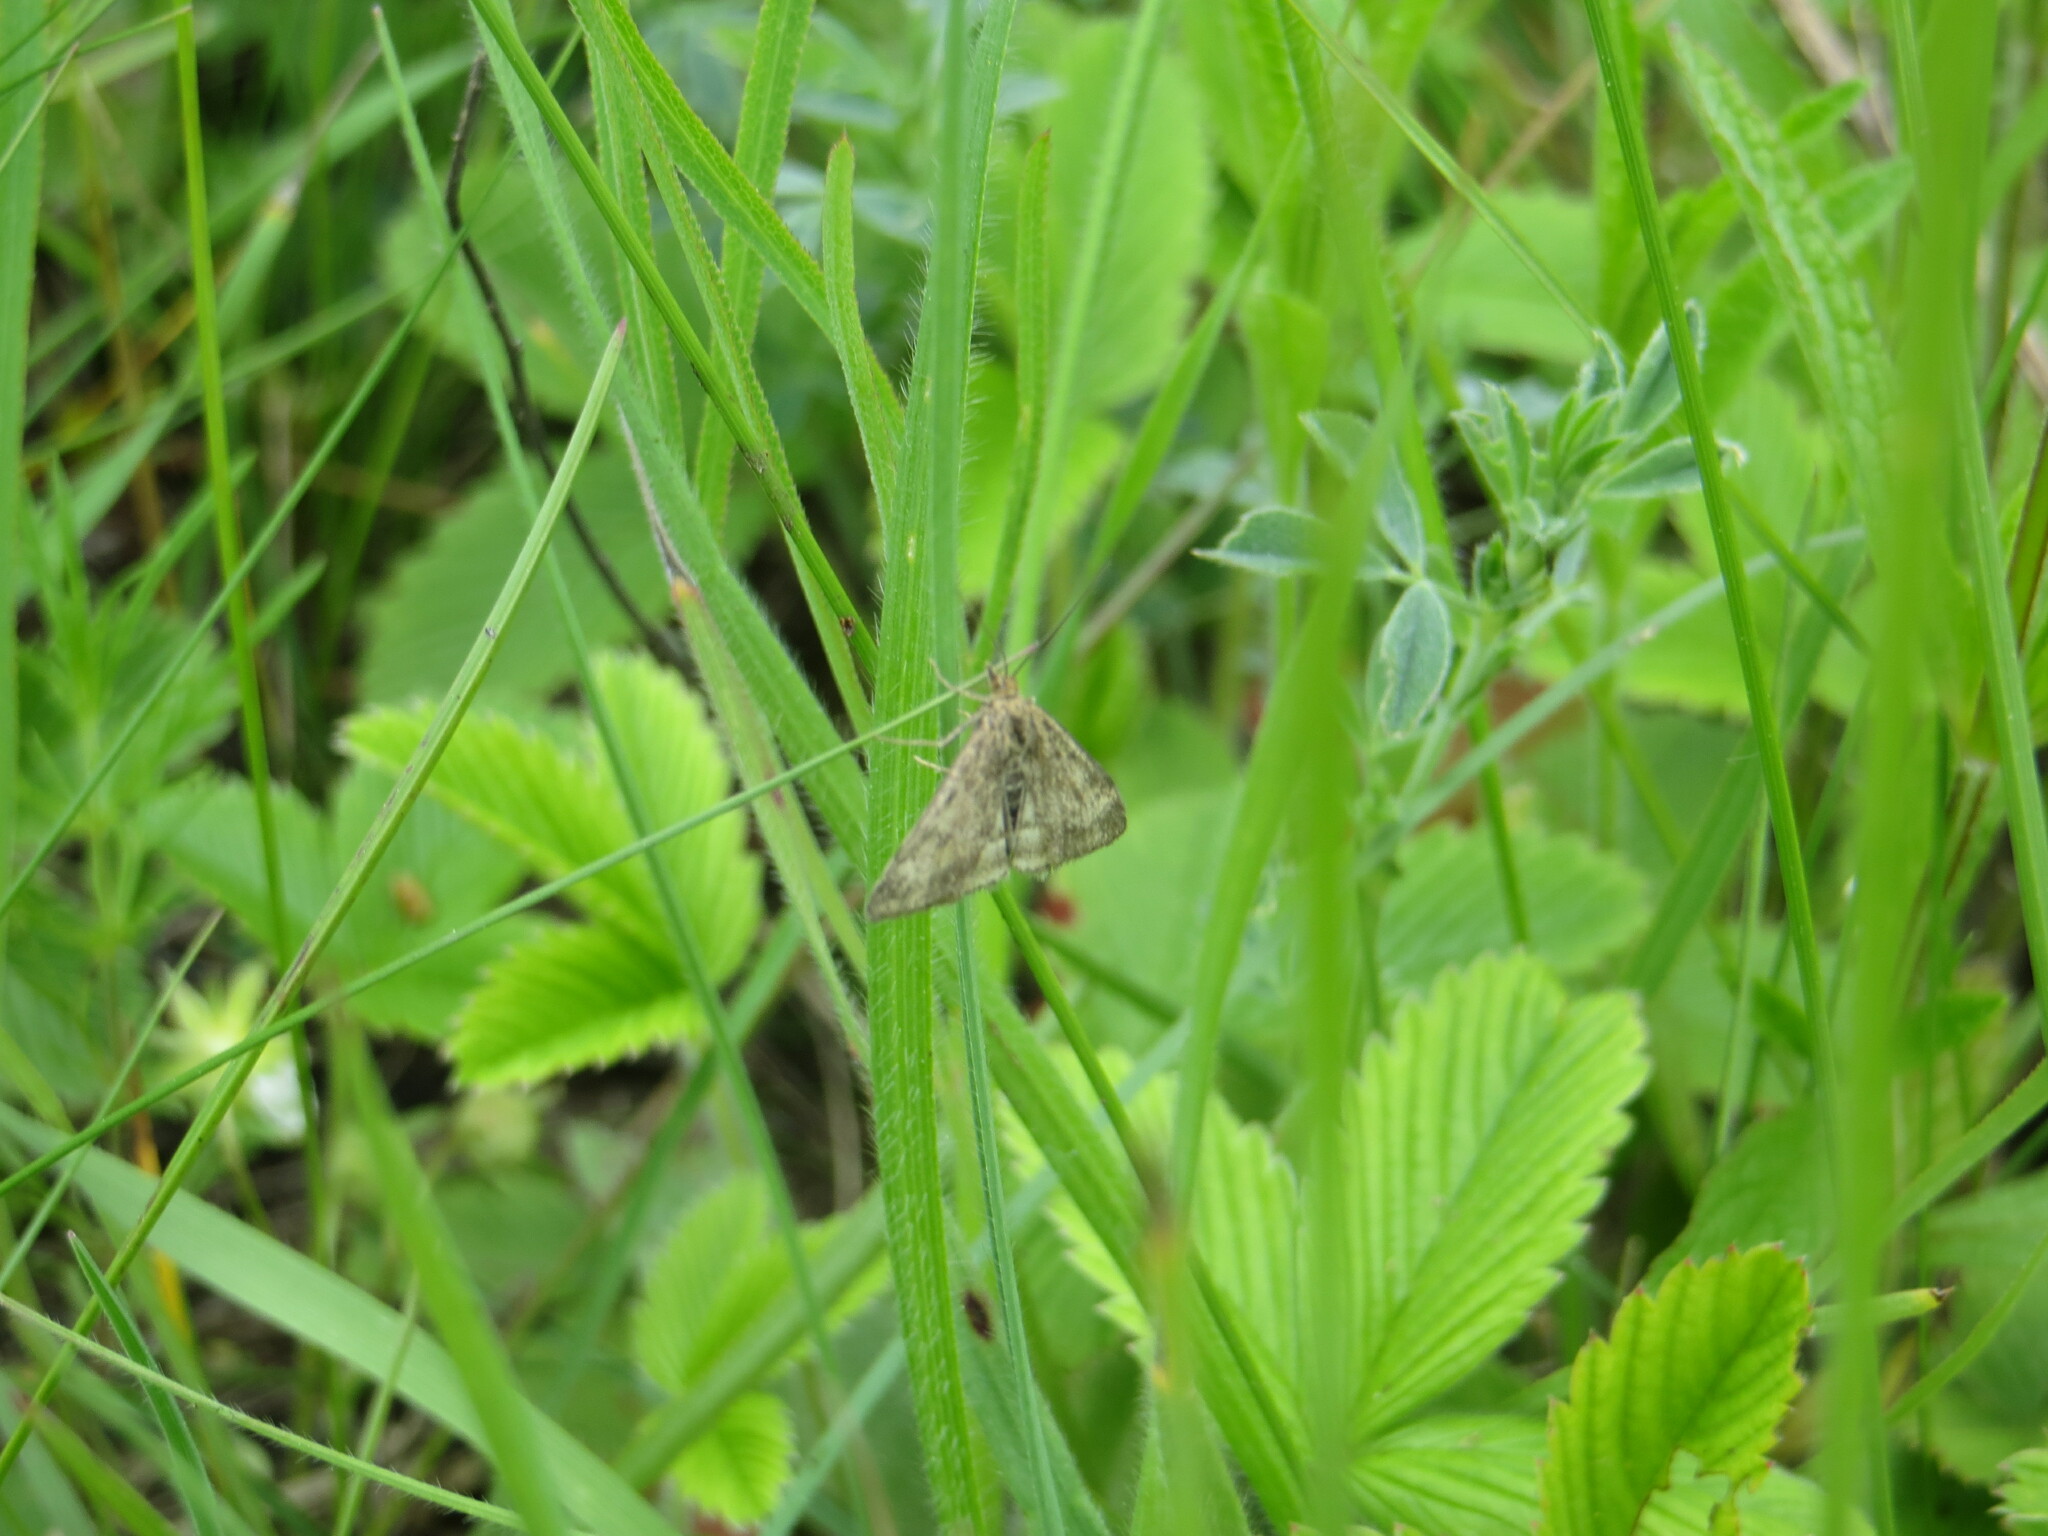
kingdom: Animalia
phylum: Arthropoda
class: Insecta
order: Lepidoptera
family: Crambidae
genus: Pyrausta
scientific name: Pyrausta despicata
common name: Straw-barred pearl
